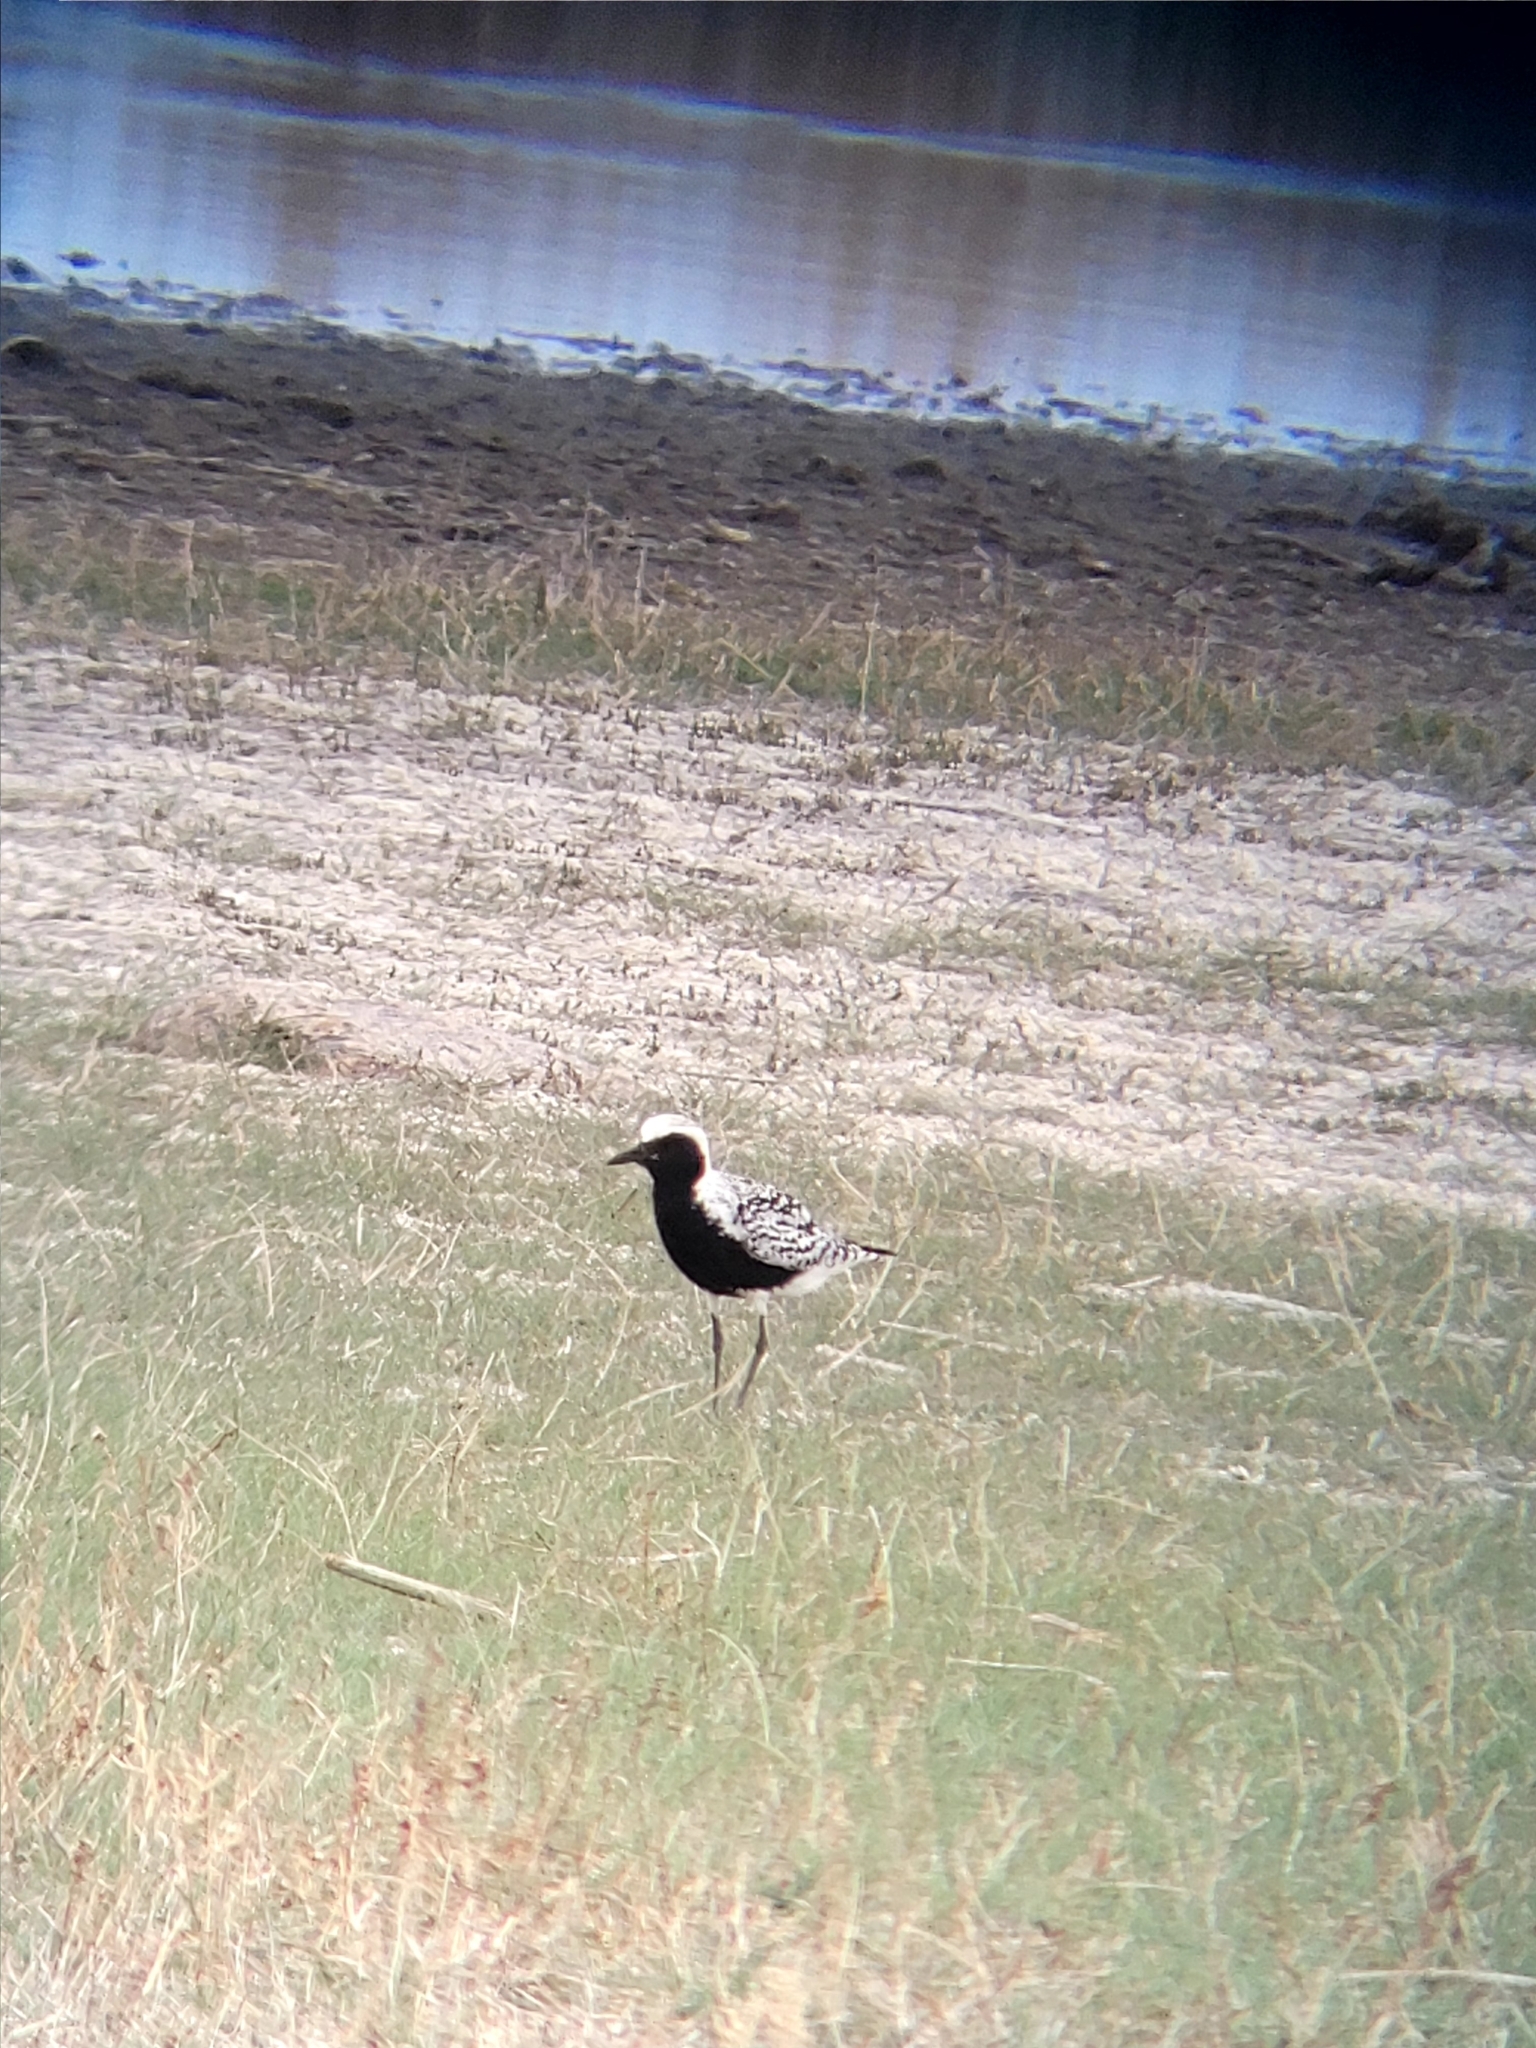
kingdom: Animalia
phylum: Chordata
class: Aves
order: Charadriiformes
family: Charadriidae
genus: Pluvialis
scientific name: Pluvialis squatarola
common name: Grey plover
